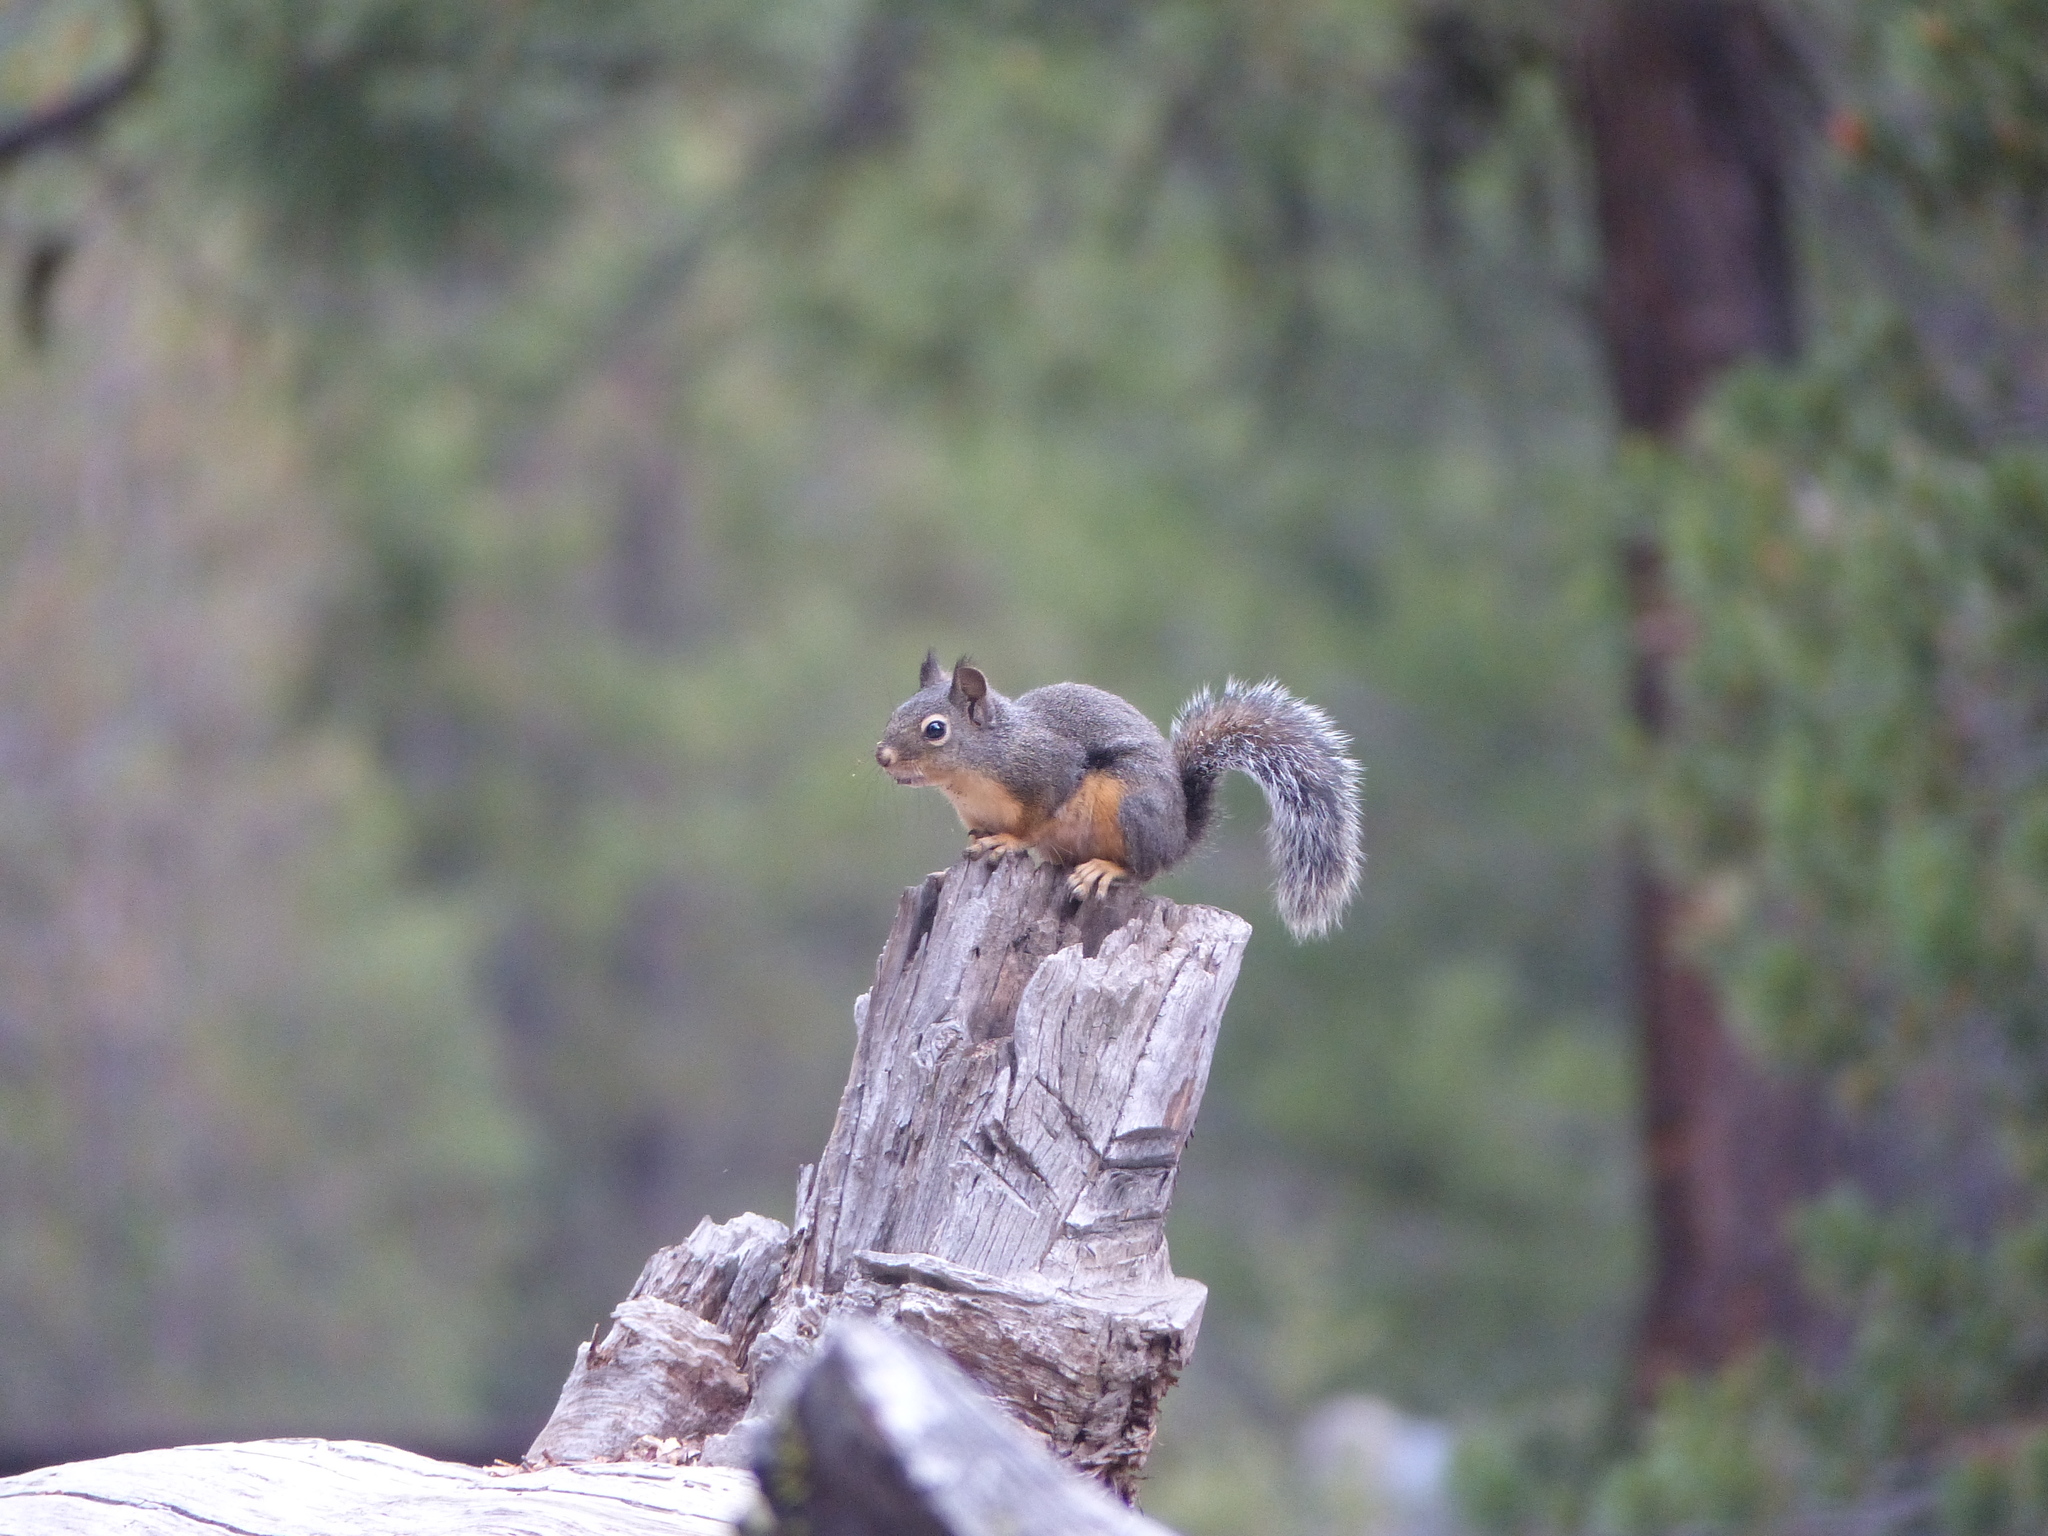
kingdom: Animalia
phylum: Chordata
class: Mammalia
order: Rodentia
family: Sciuridae
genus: Tamiasciurus
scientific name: Tamiasciurus douglasii
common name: Douglas's squirrel
